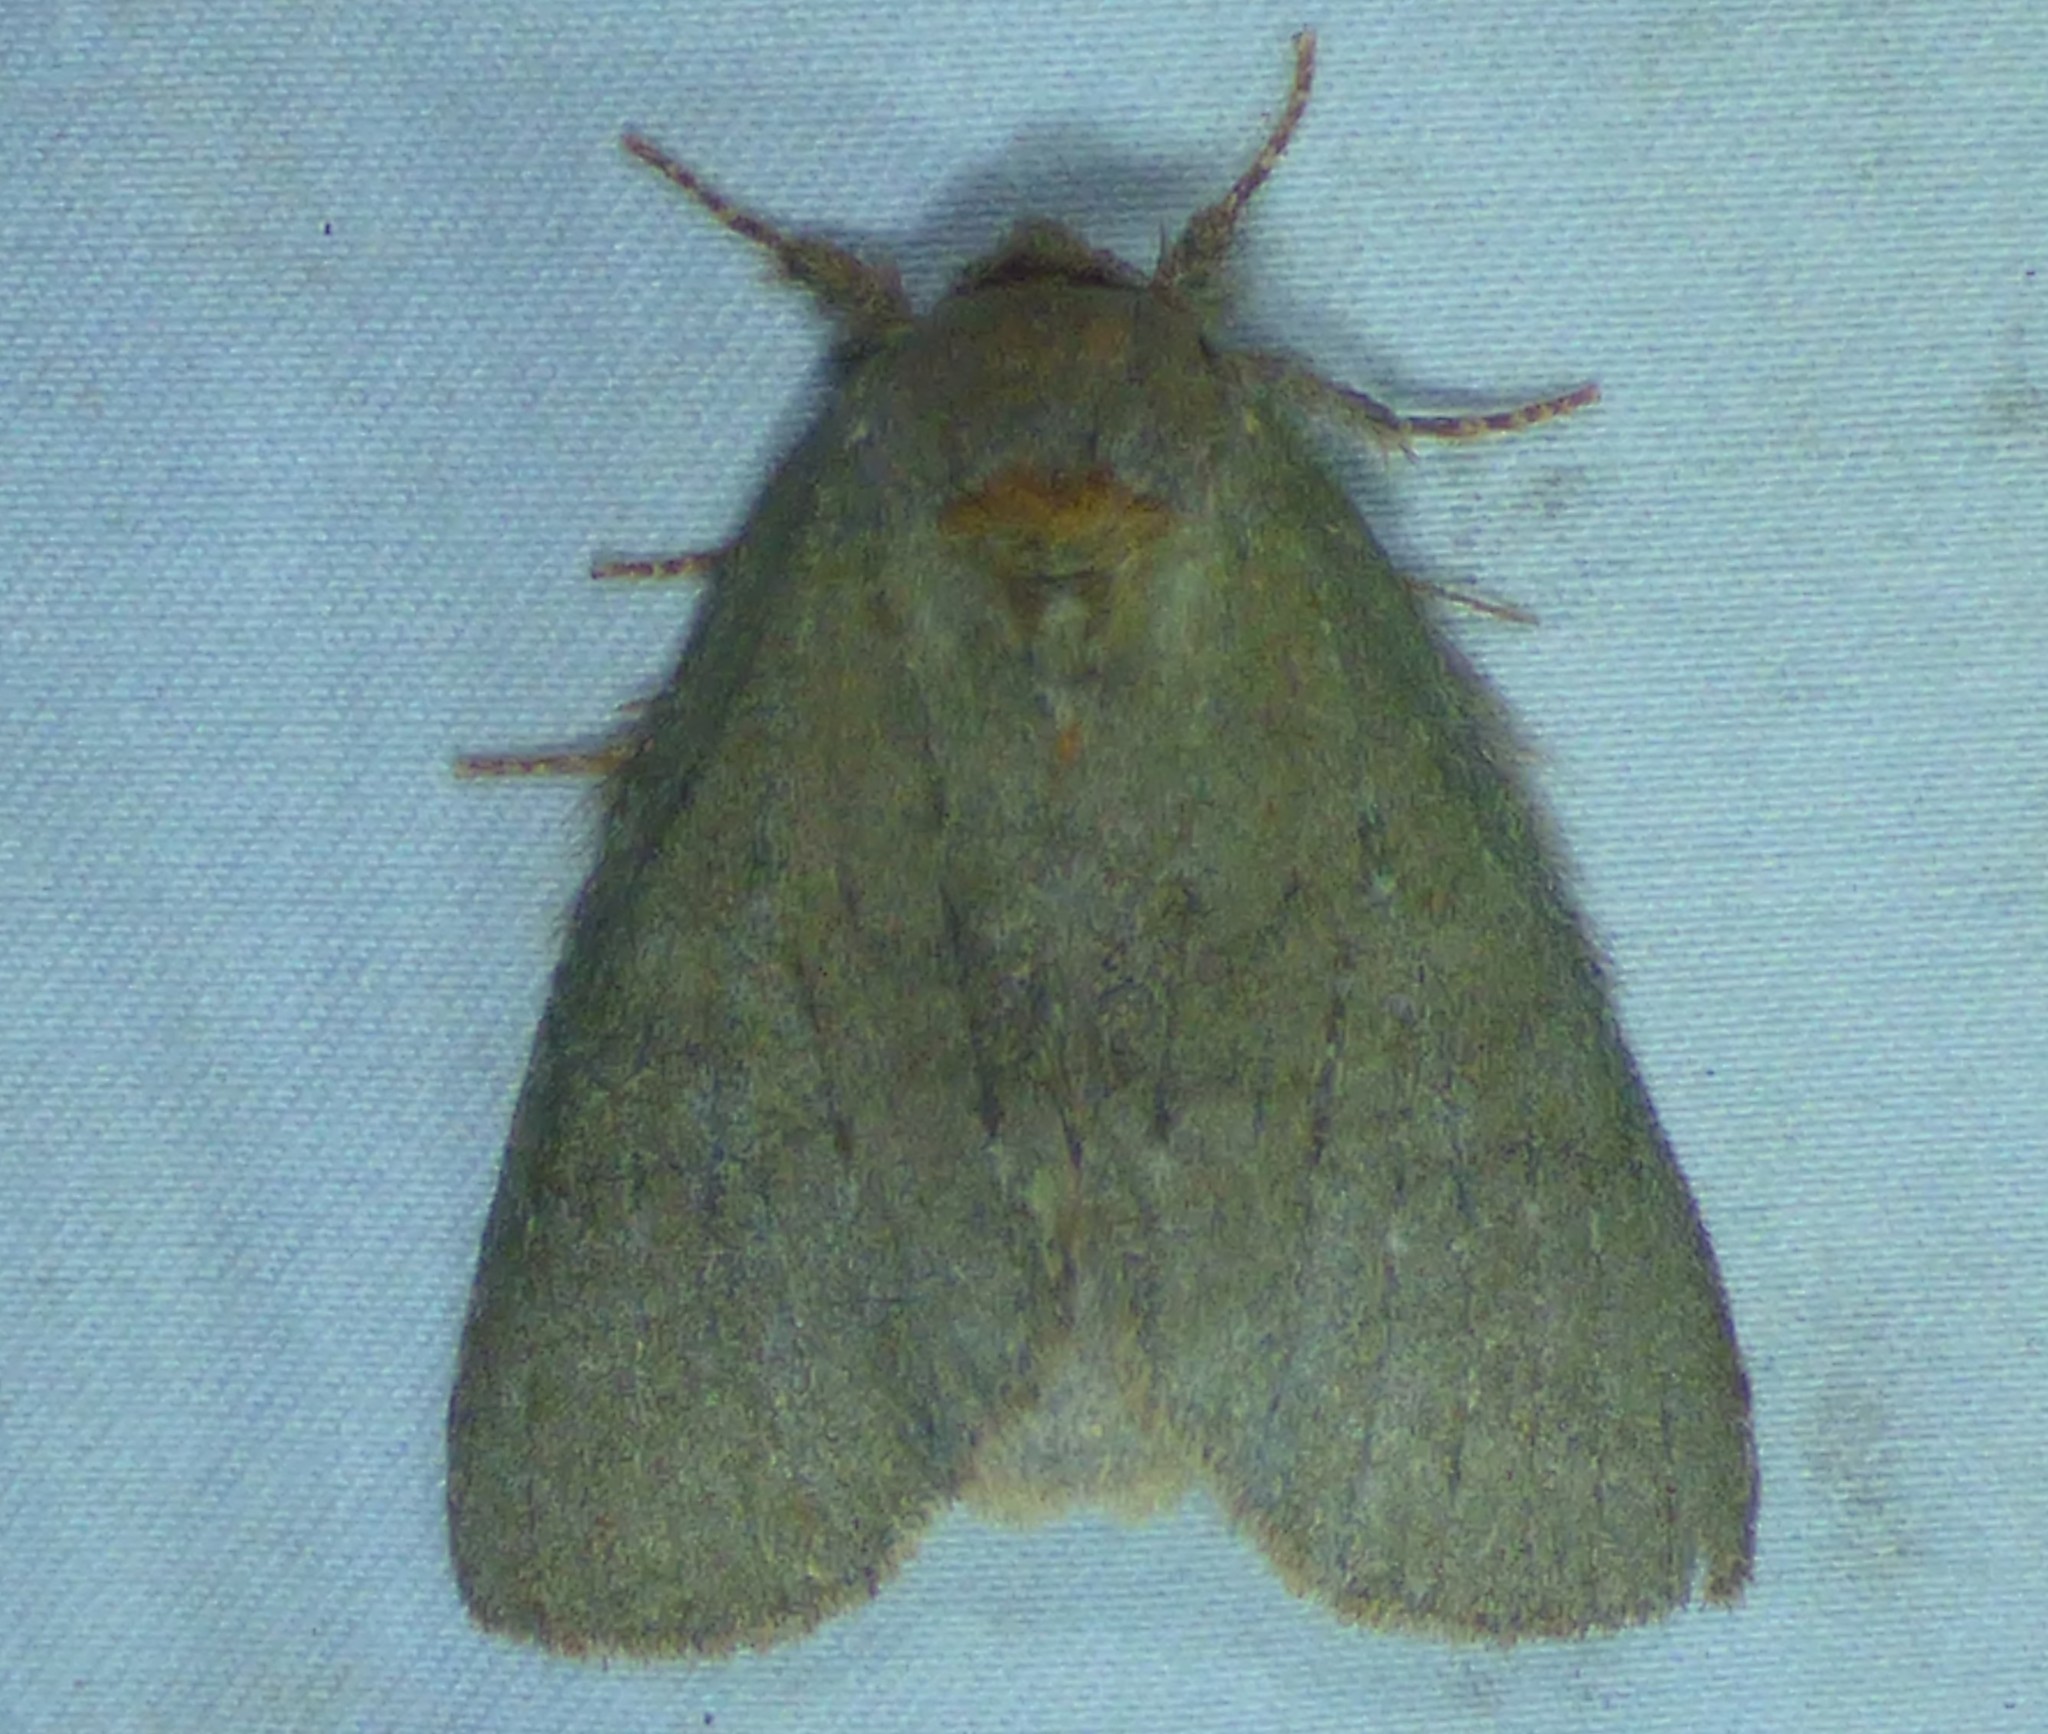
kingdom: Animalia
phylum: Arthropoda
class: Insecta
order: Lepidoptera
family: Notodontidae
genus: Misogada
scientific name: Misogada unicolor
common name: Drab prominent
